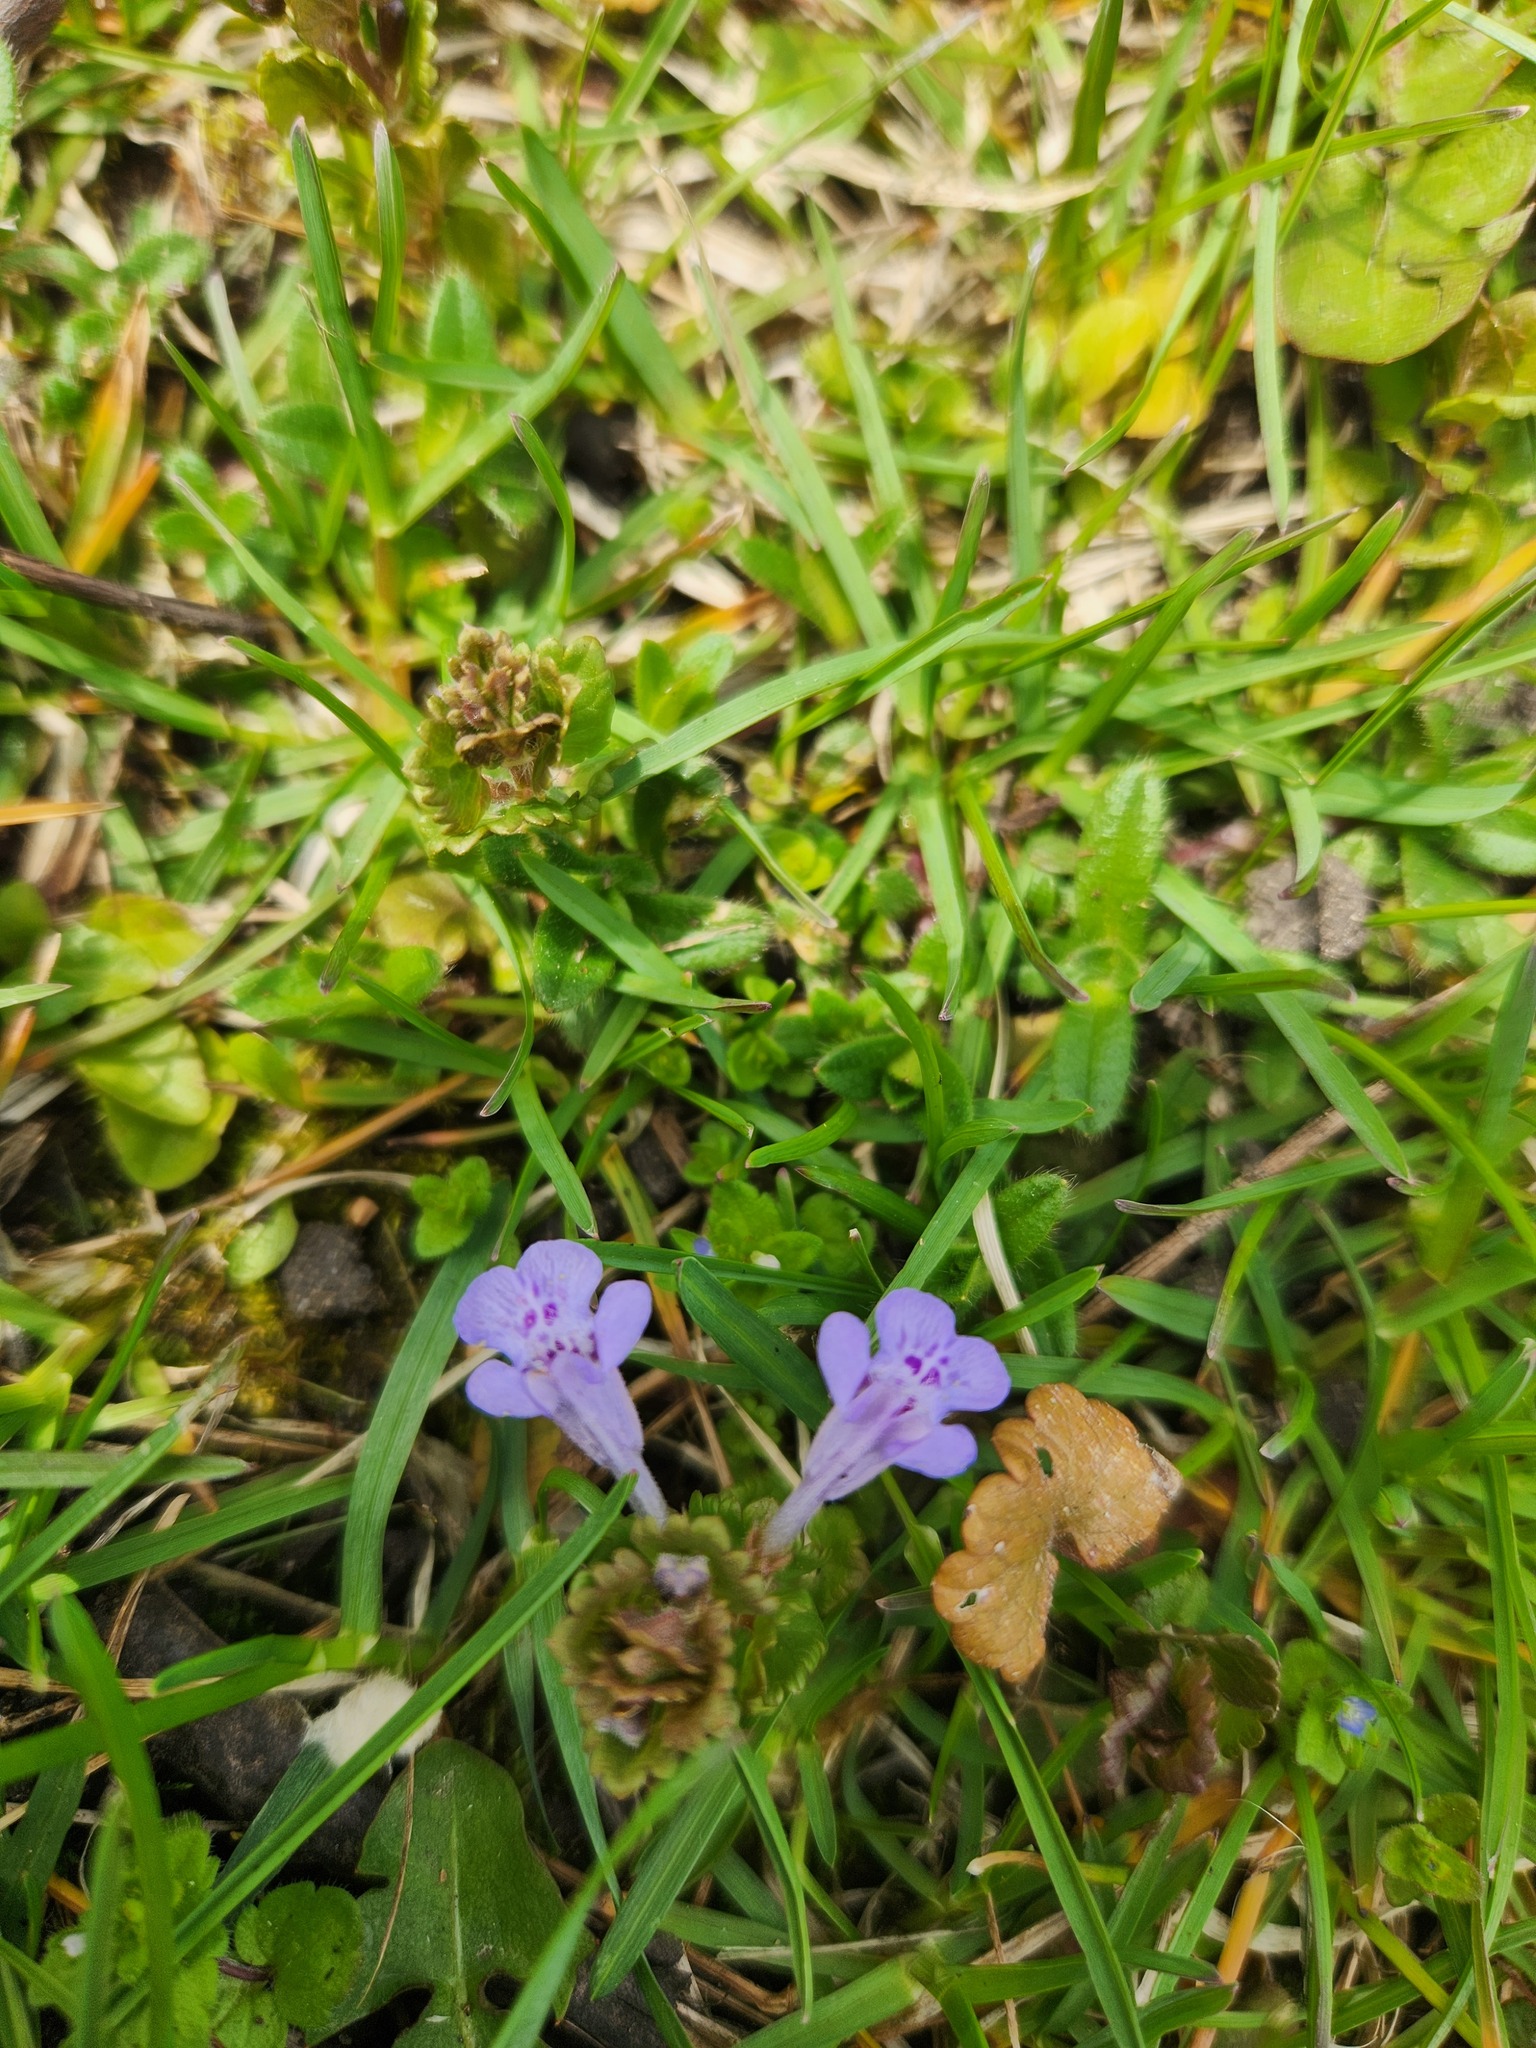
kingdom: Plantae
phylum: Tracheophyta
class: Magnoliopsida
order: Lamiales
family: Lamiaceae
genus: Glechoma
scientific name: Glechoma hederacea
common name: Ground ivy
